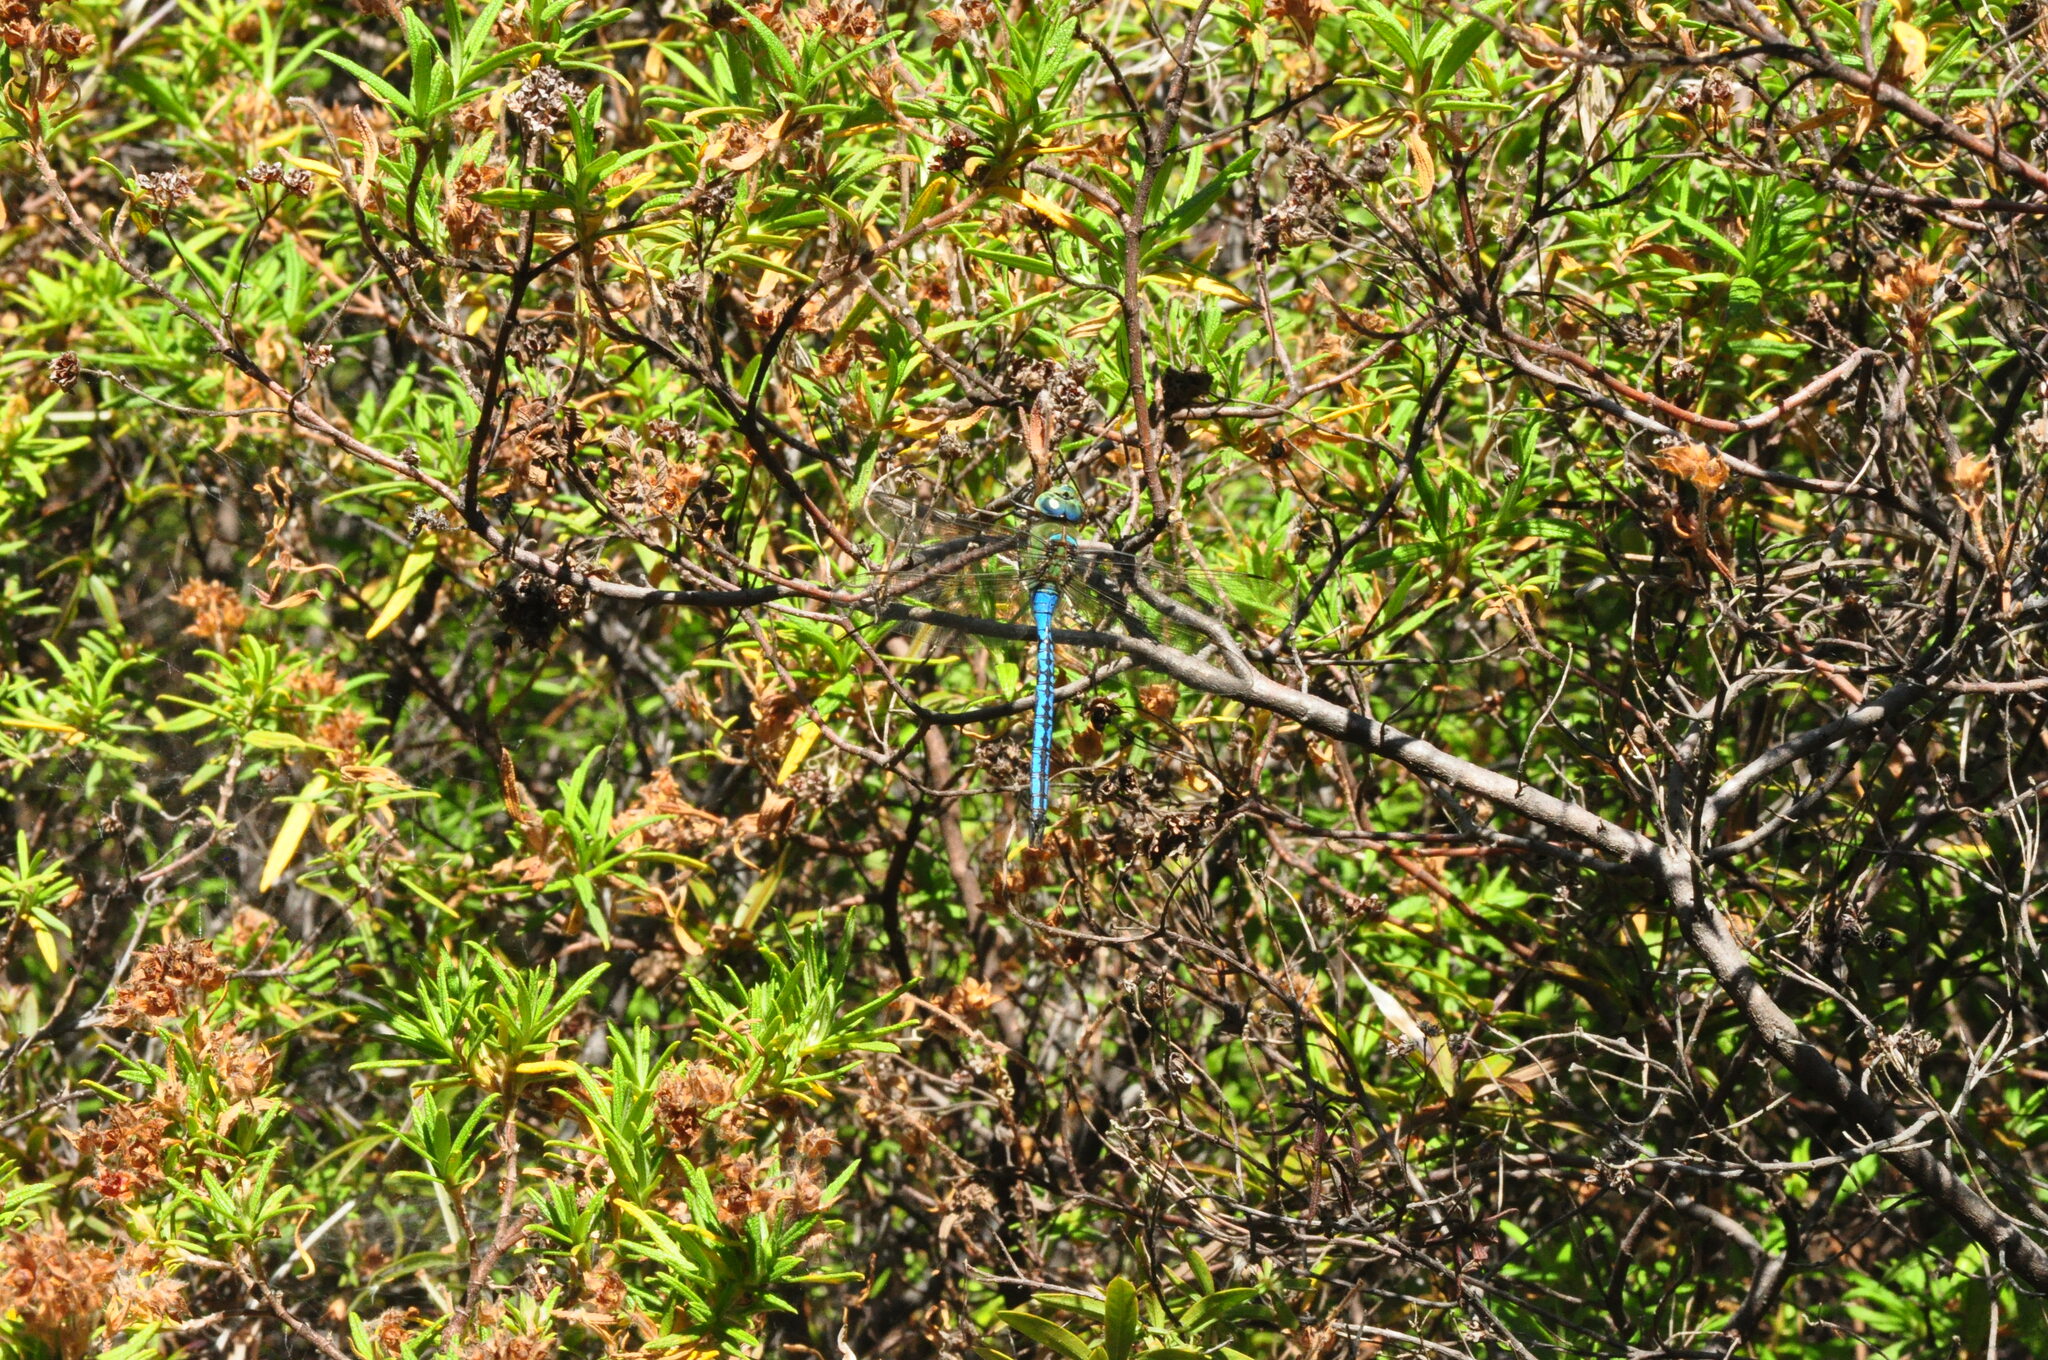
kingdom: Animalia
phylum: Arthropoda
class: Insecta
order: Odonata
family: Aeshnidae
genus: Anax
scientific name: Anax imperator
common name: Emperor dragonfly
